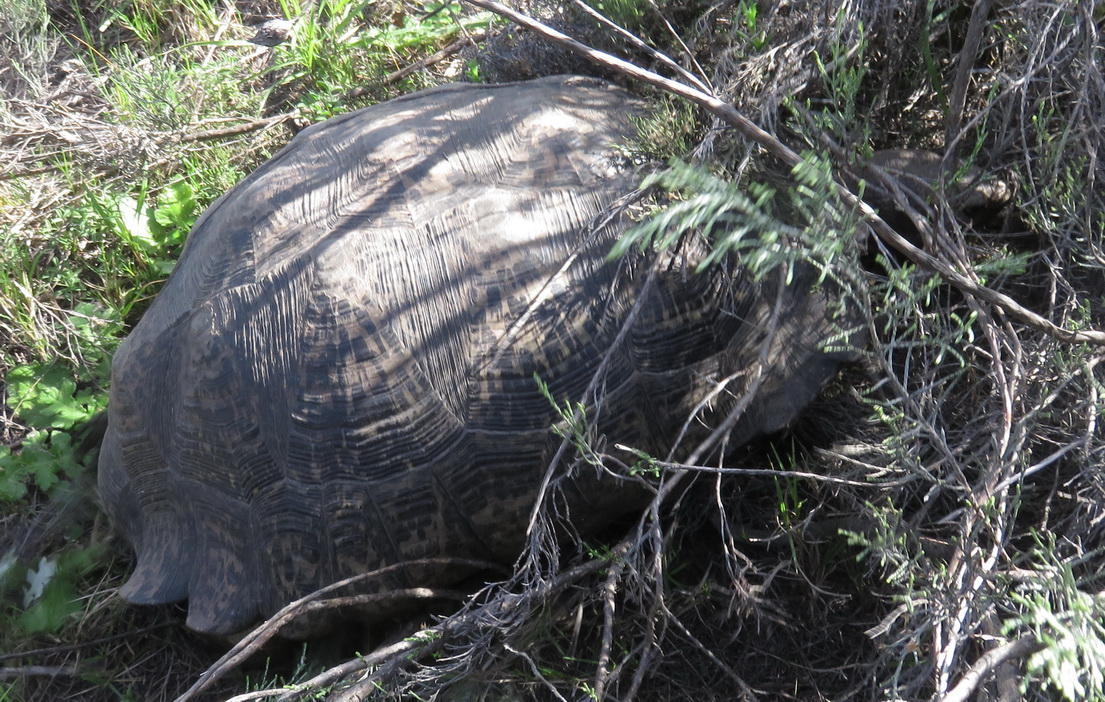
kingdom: Animalia
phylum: Chordata
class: Testudines
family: Testudinidae
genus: Stigmochelys
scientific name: Stigmochelys pardalis
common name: Leopard tortoise
